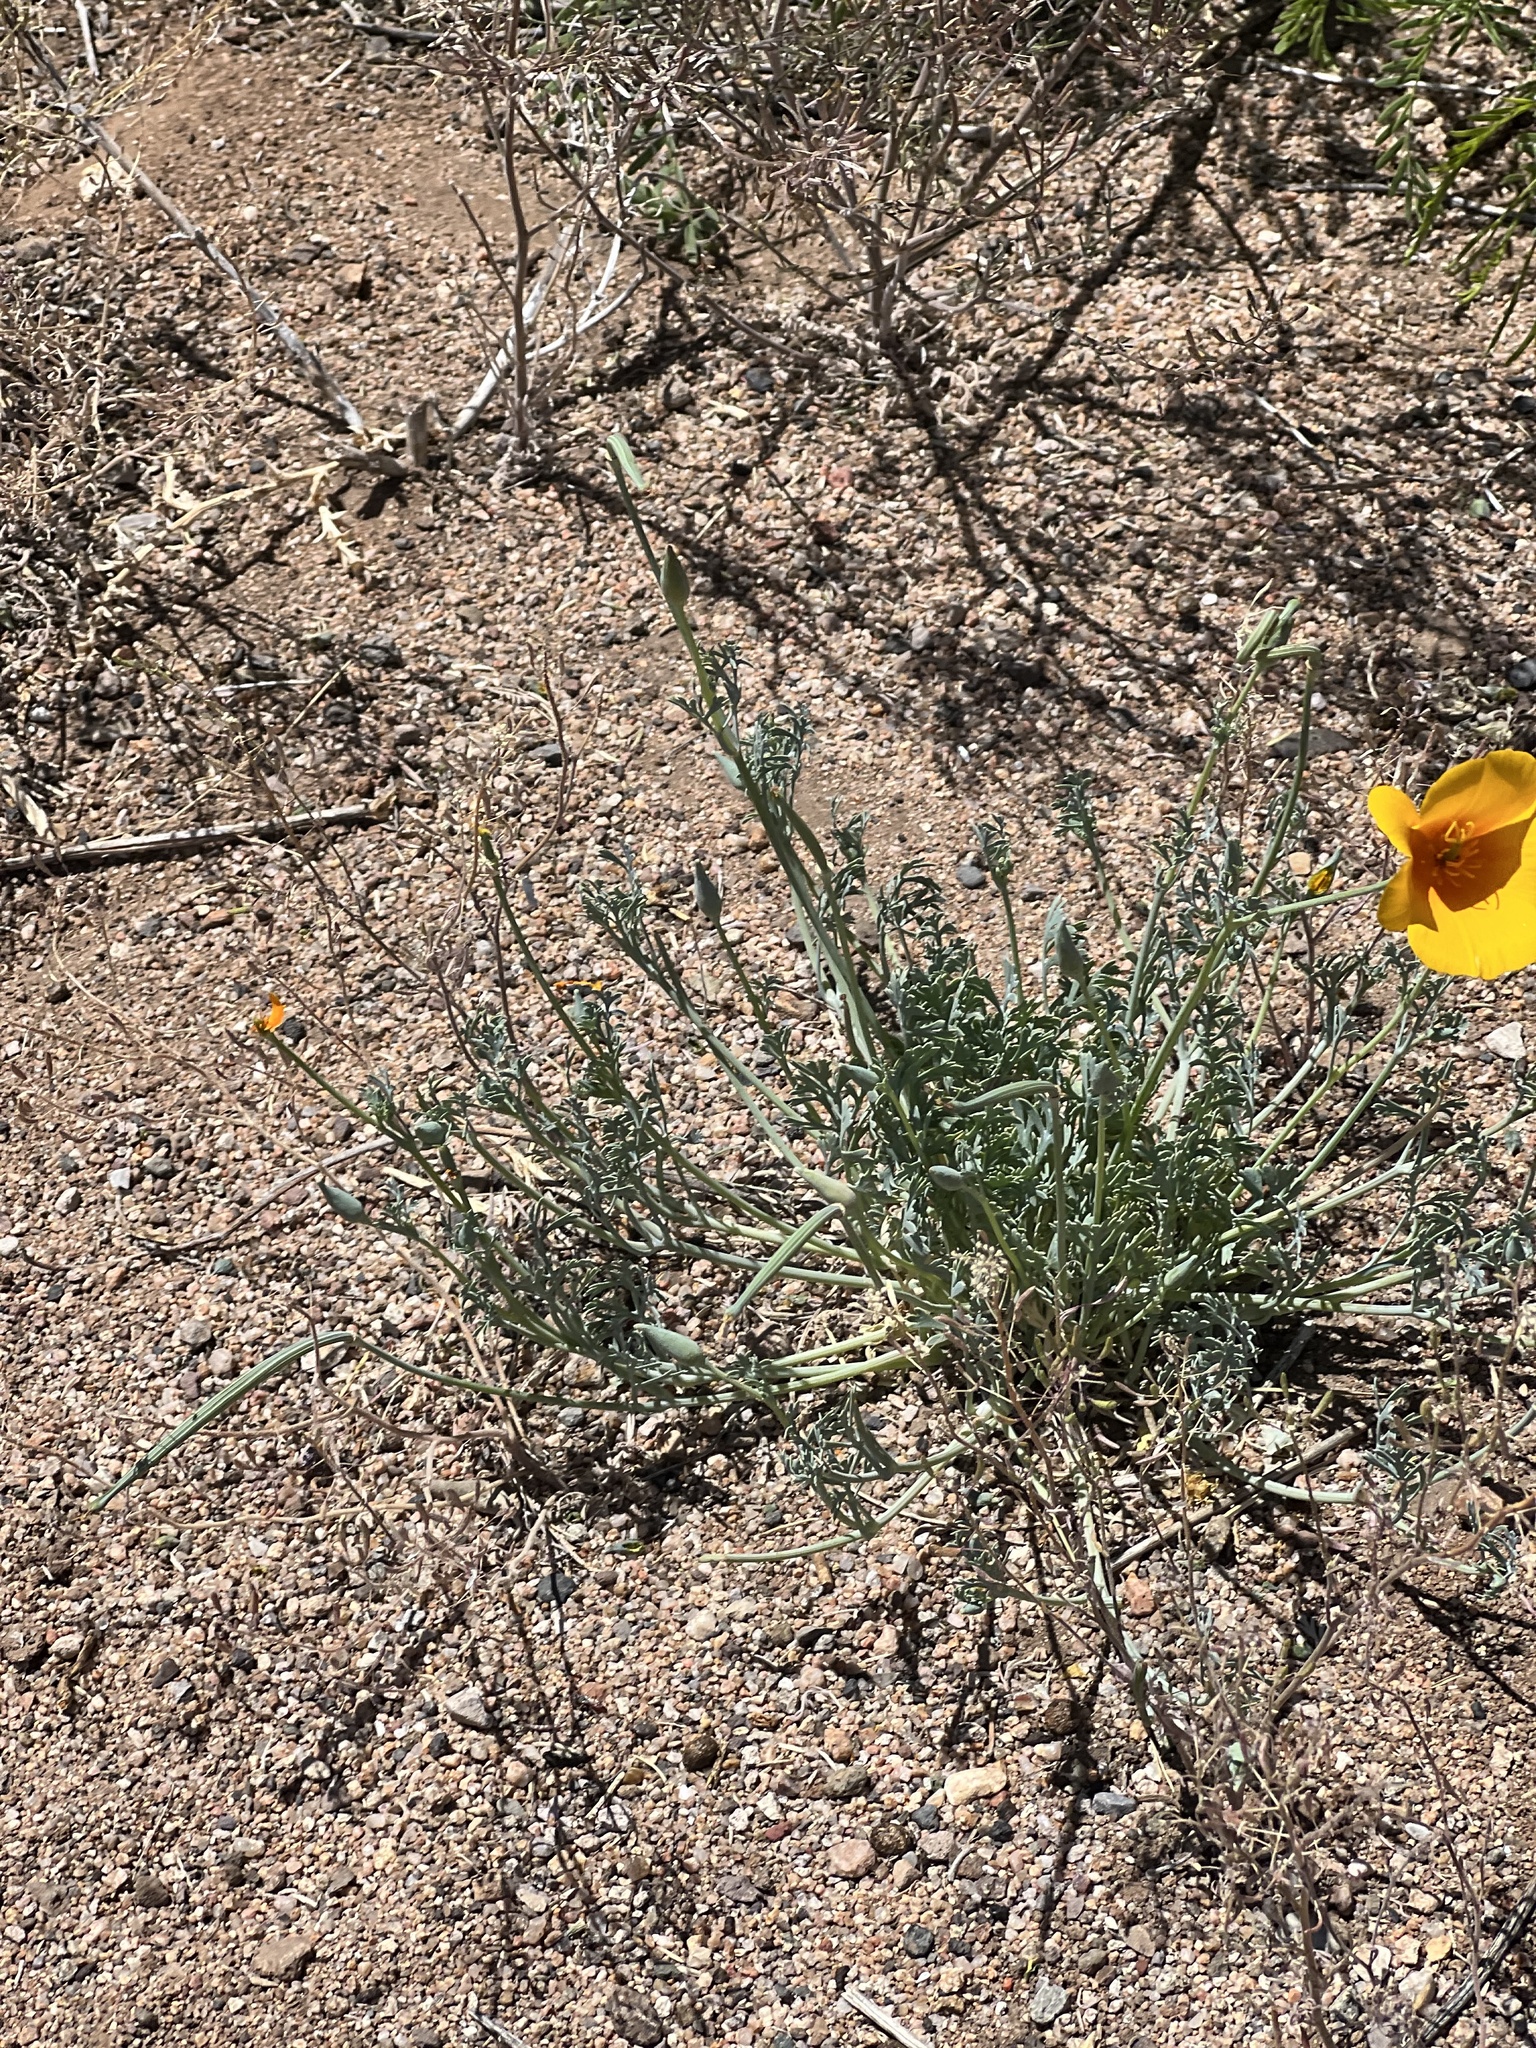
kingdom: Plantae
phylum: Tracheophyta
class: Magnoliopsida
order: Ranunculales
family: Papaveraceae
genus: Eschscholzia
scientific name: Eschscholzia californica
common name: California poppy
